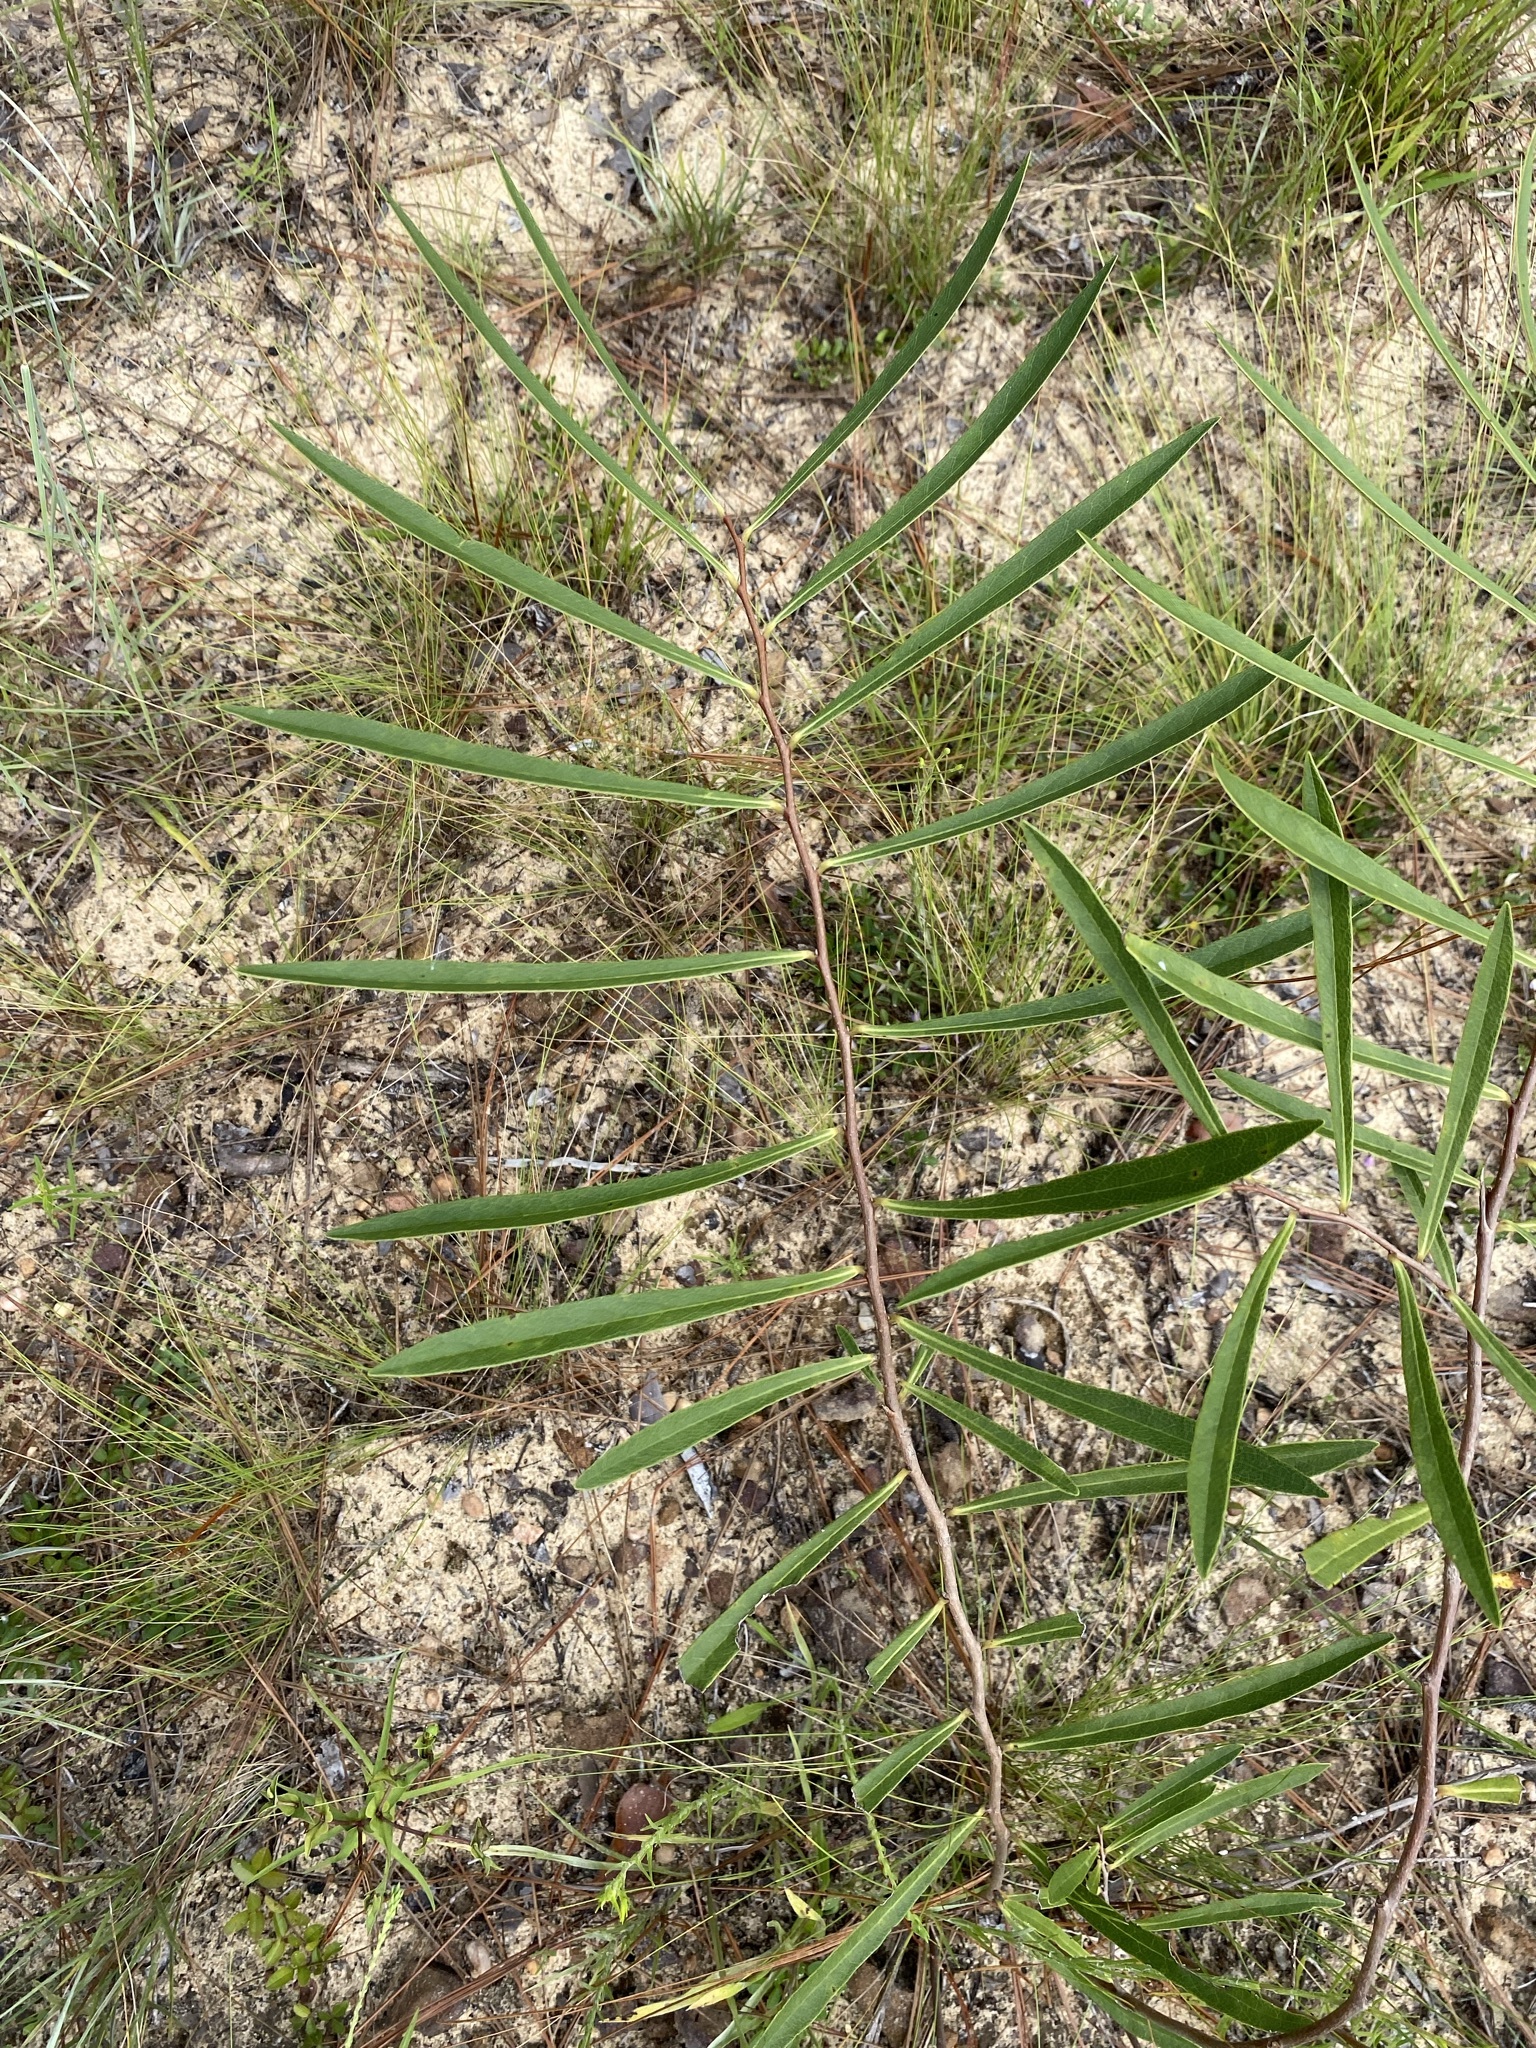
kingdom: Plantae
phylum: Tracheophyta
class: Magnoliopsida
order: Magnoliales
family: Annonaceae
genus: Asimina
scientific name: Asimina longifolia
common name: Polecatbush
